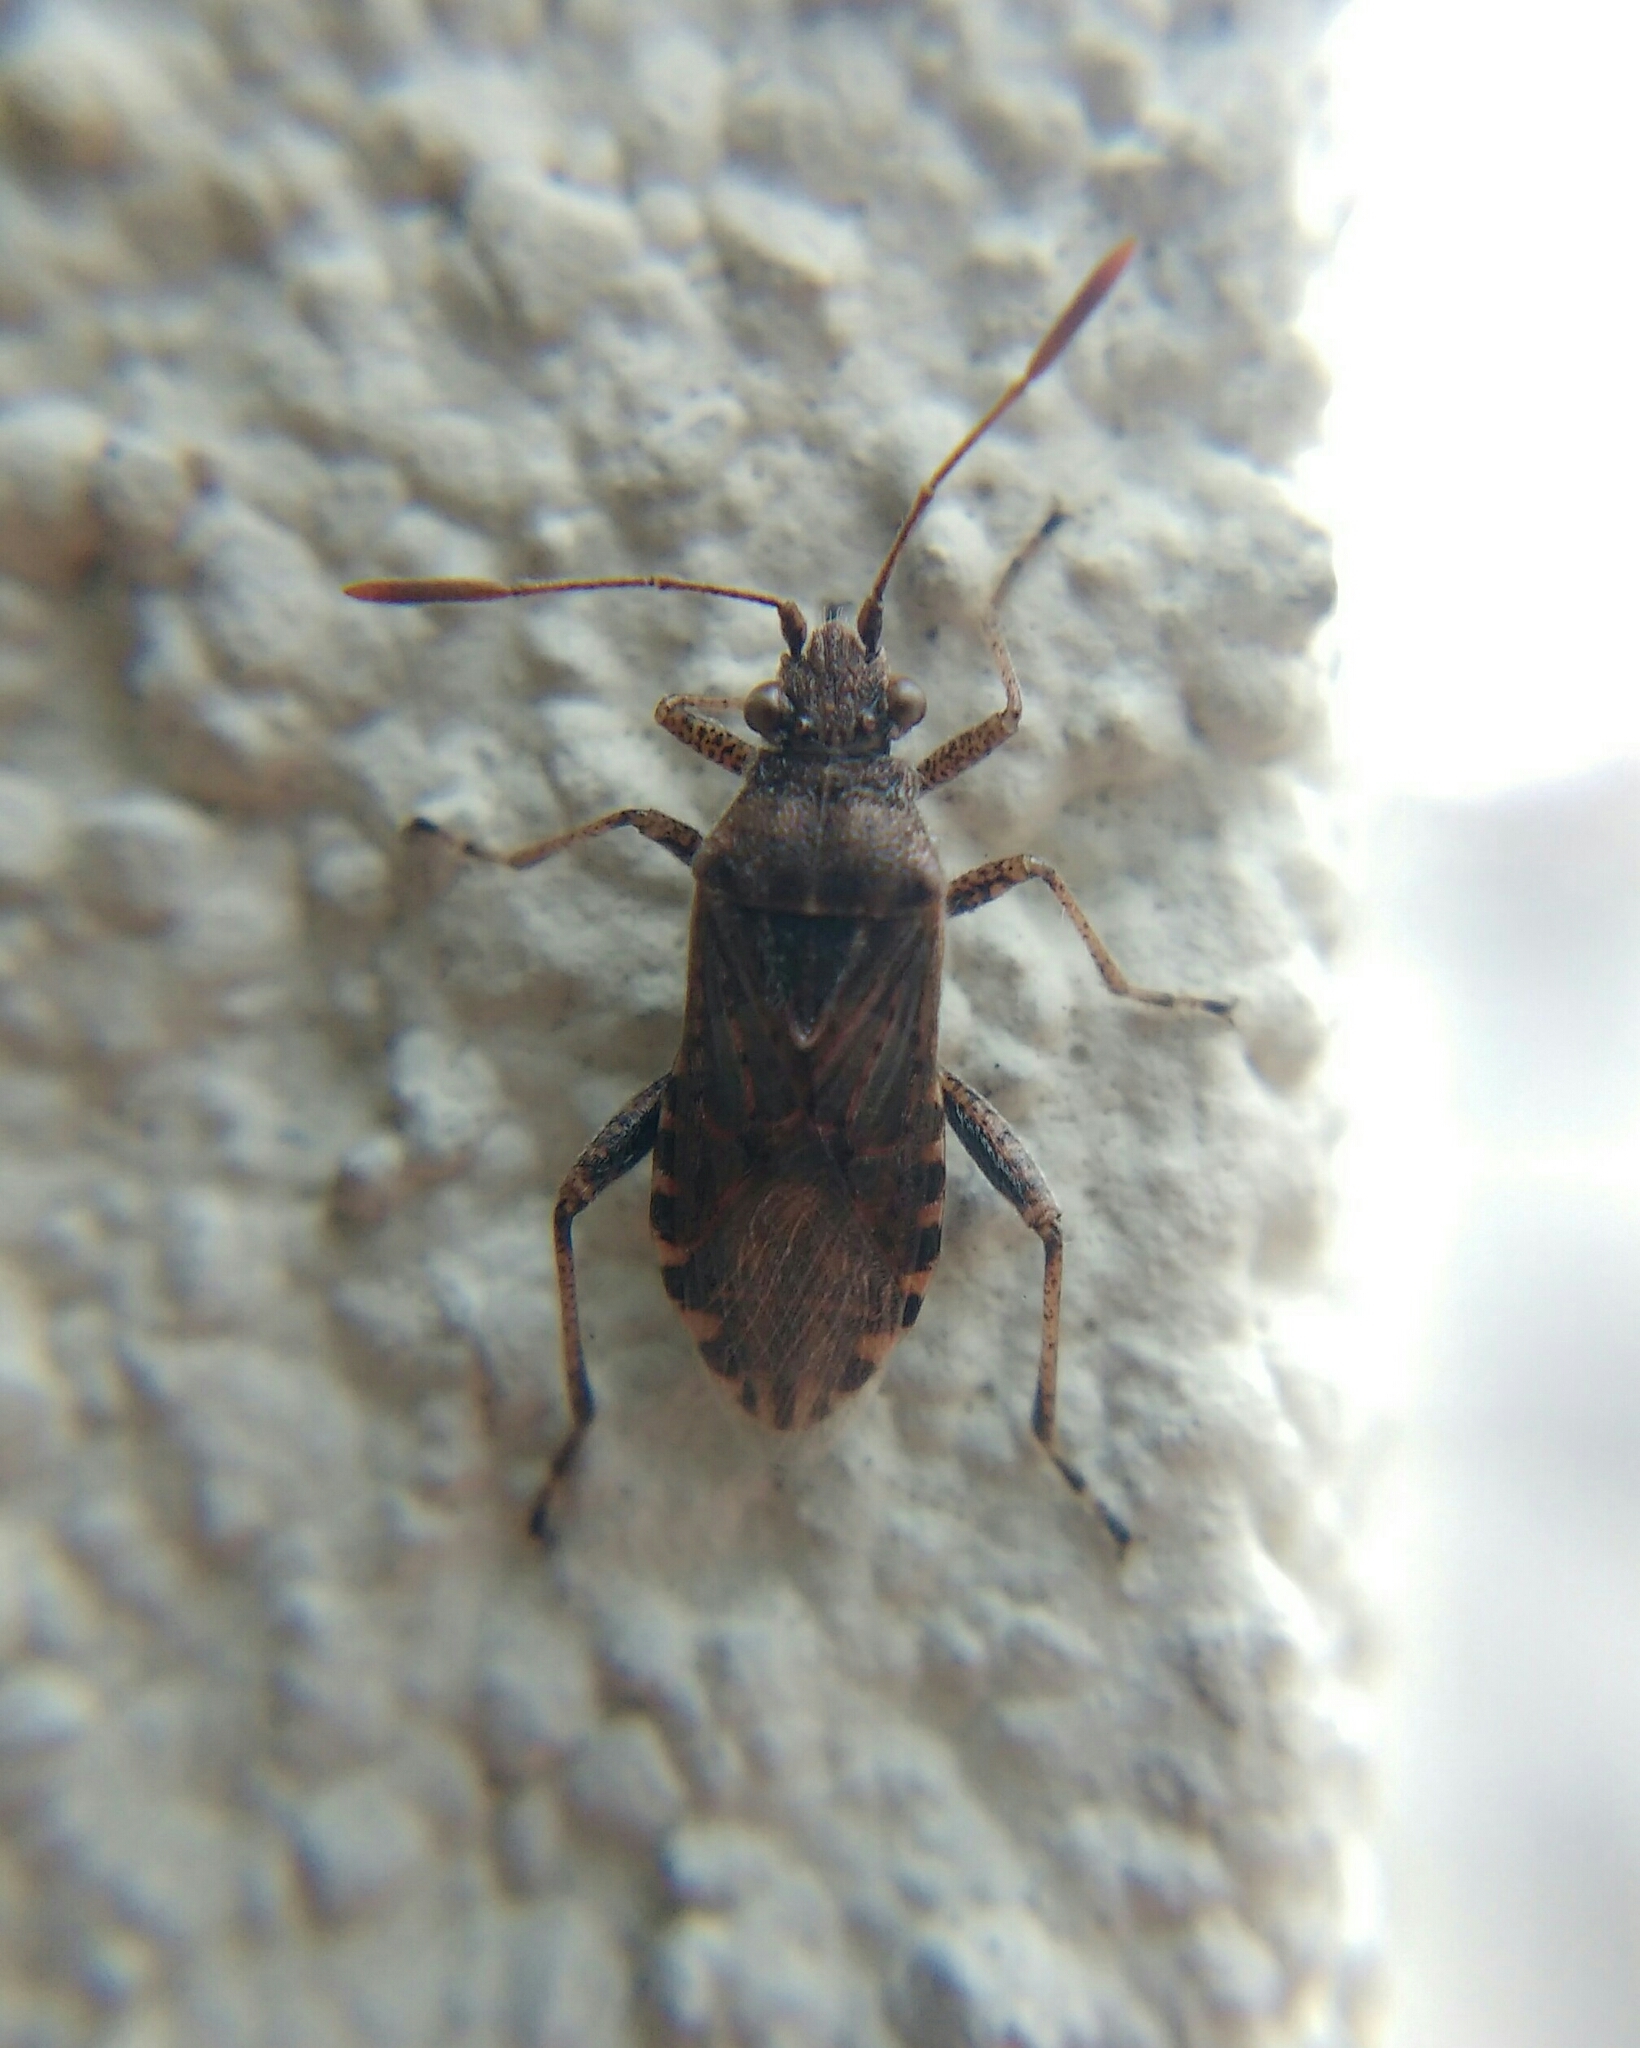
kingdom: Animalia
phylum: Arthropoda
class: Insecta
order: Hemiptera
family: Rhopalidae
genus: Stictopleurus
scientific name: Stictopleurus punctatonervosus
